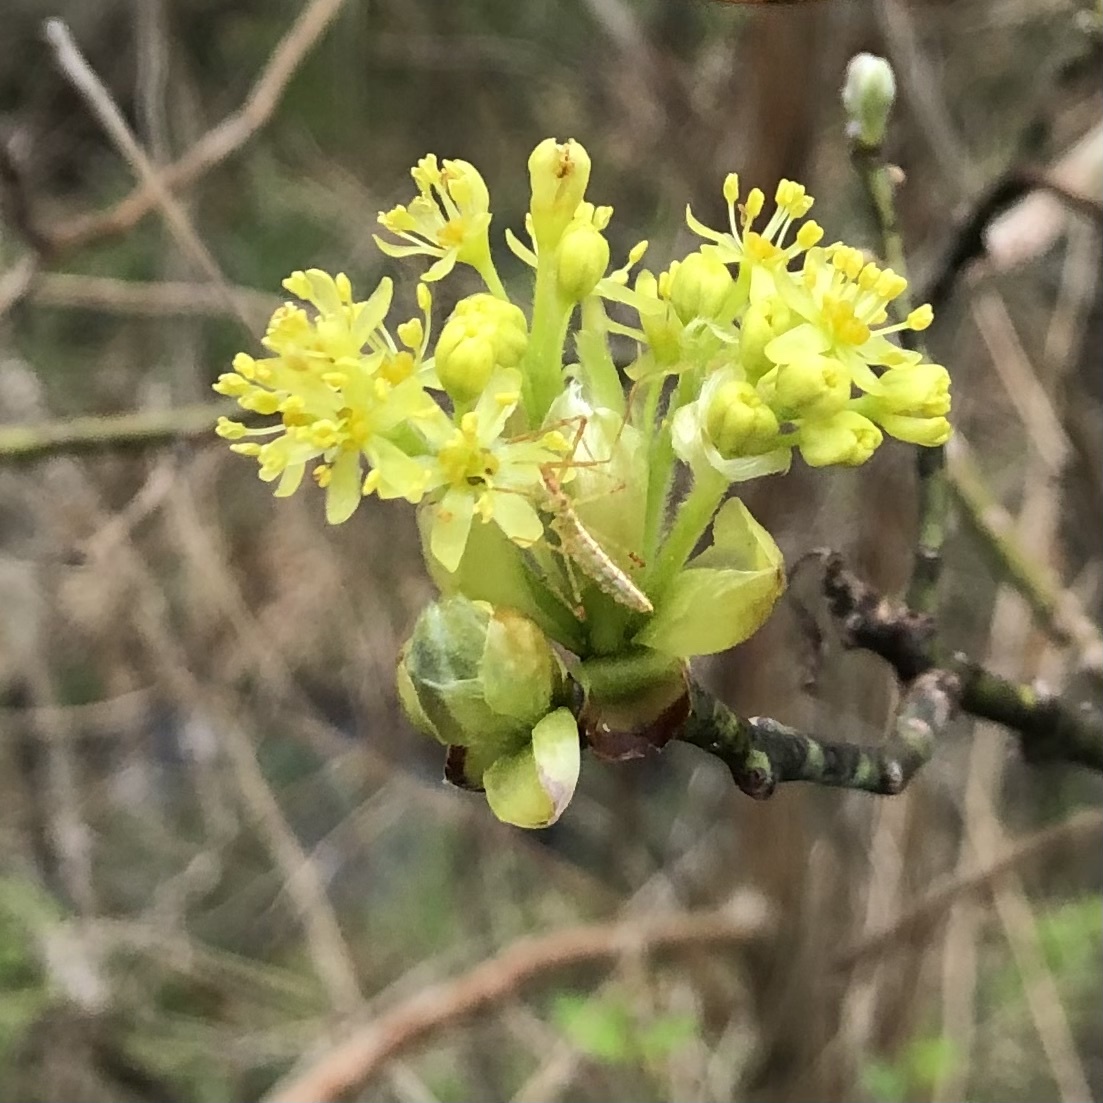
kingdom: Plantae
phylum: Tracheophyta
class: Magnoliopsida
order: Laurales
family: Lauraceae
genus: Sassafras
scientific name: Sassafras albidum
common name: Sassafras
